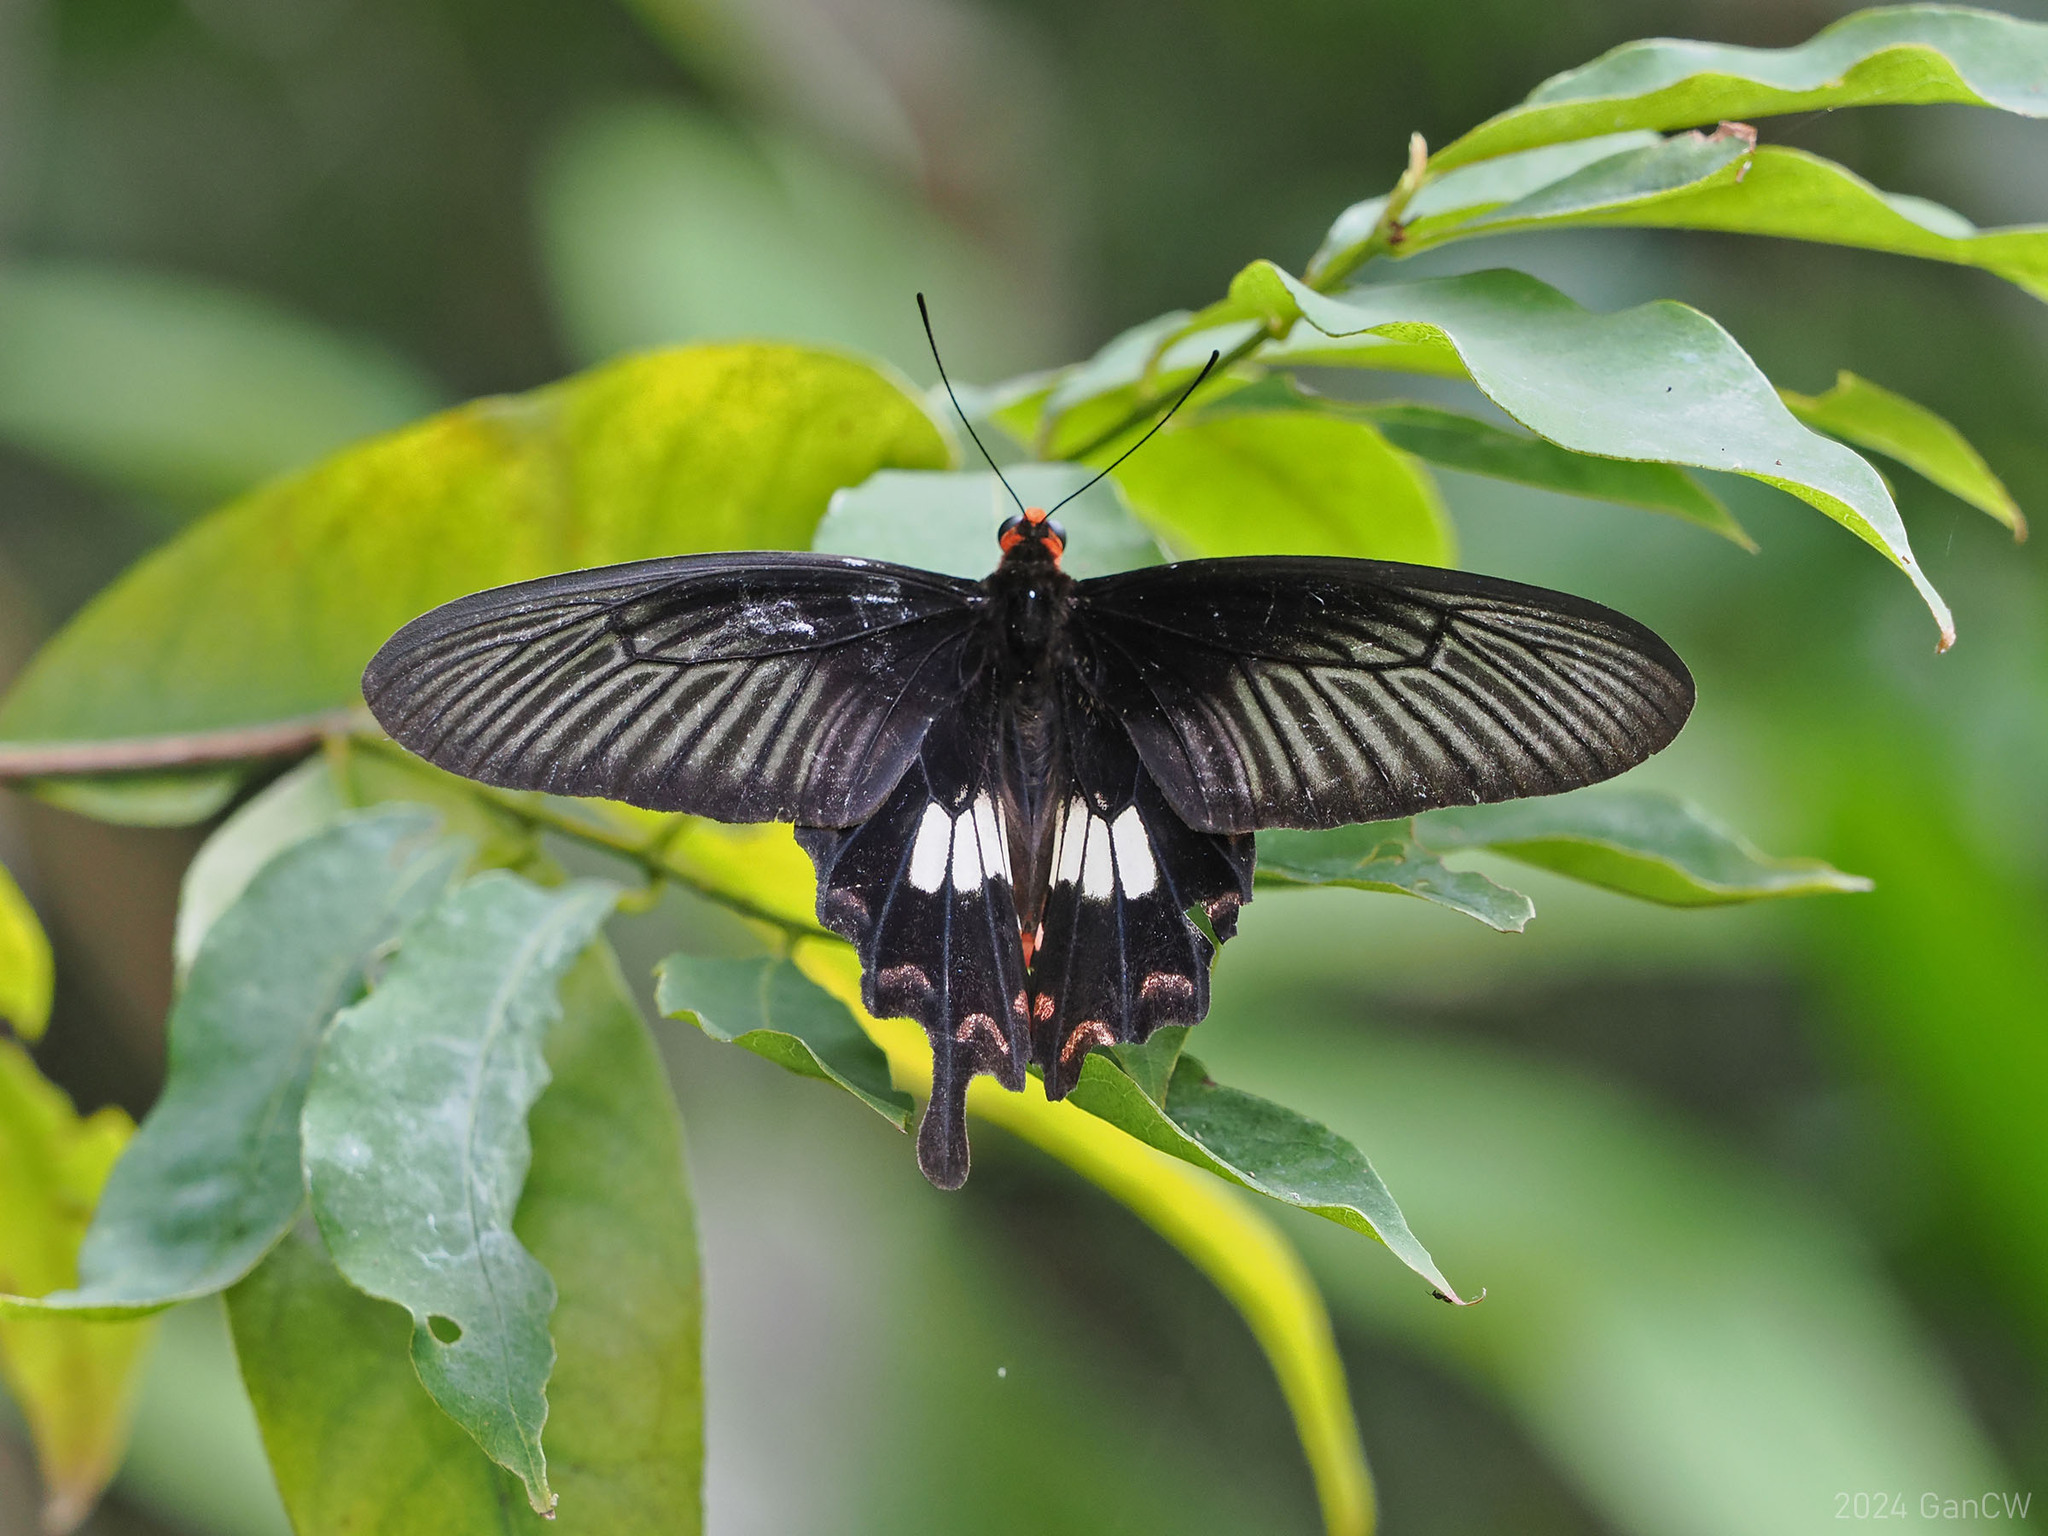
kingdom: Animalia
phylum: Arthropoda
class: Insecta
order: Lepidoptera
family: Papilionidae
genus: Pachliopta
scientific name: Pachliopta aristolochiae
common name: Common rose
